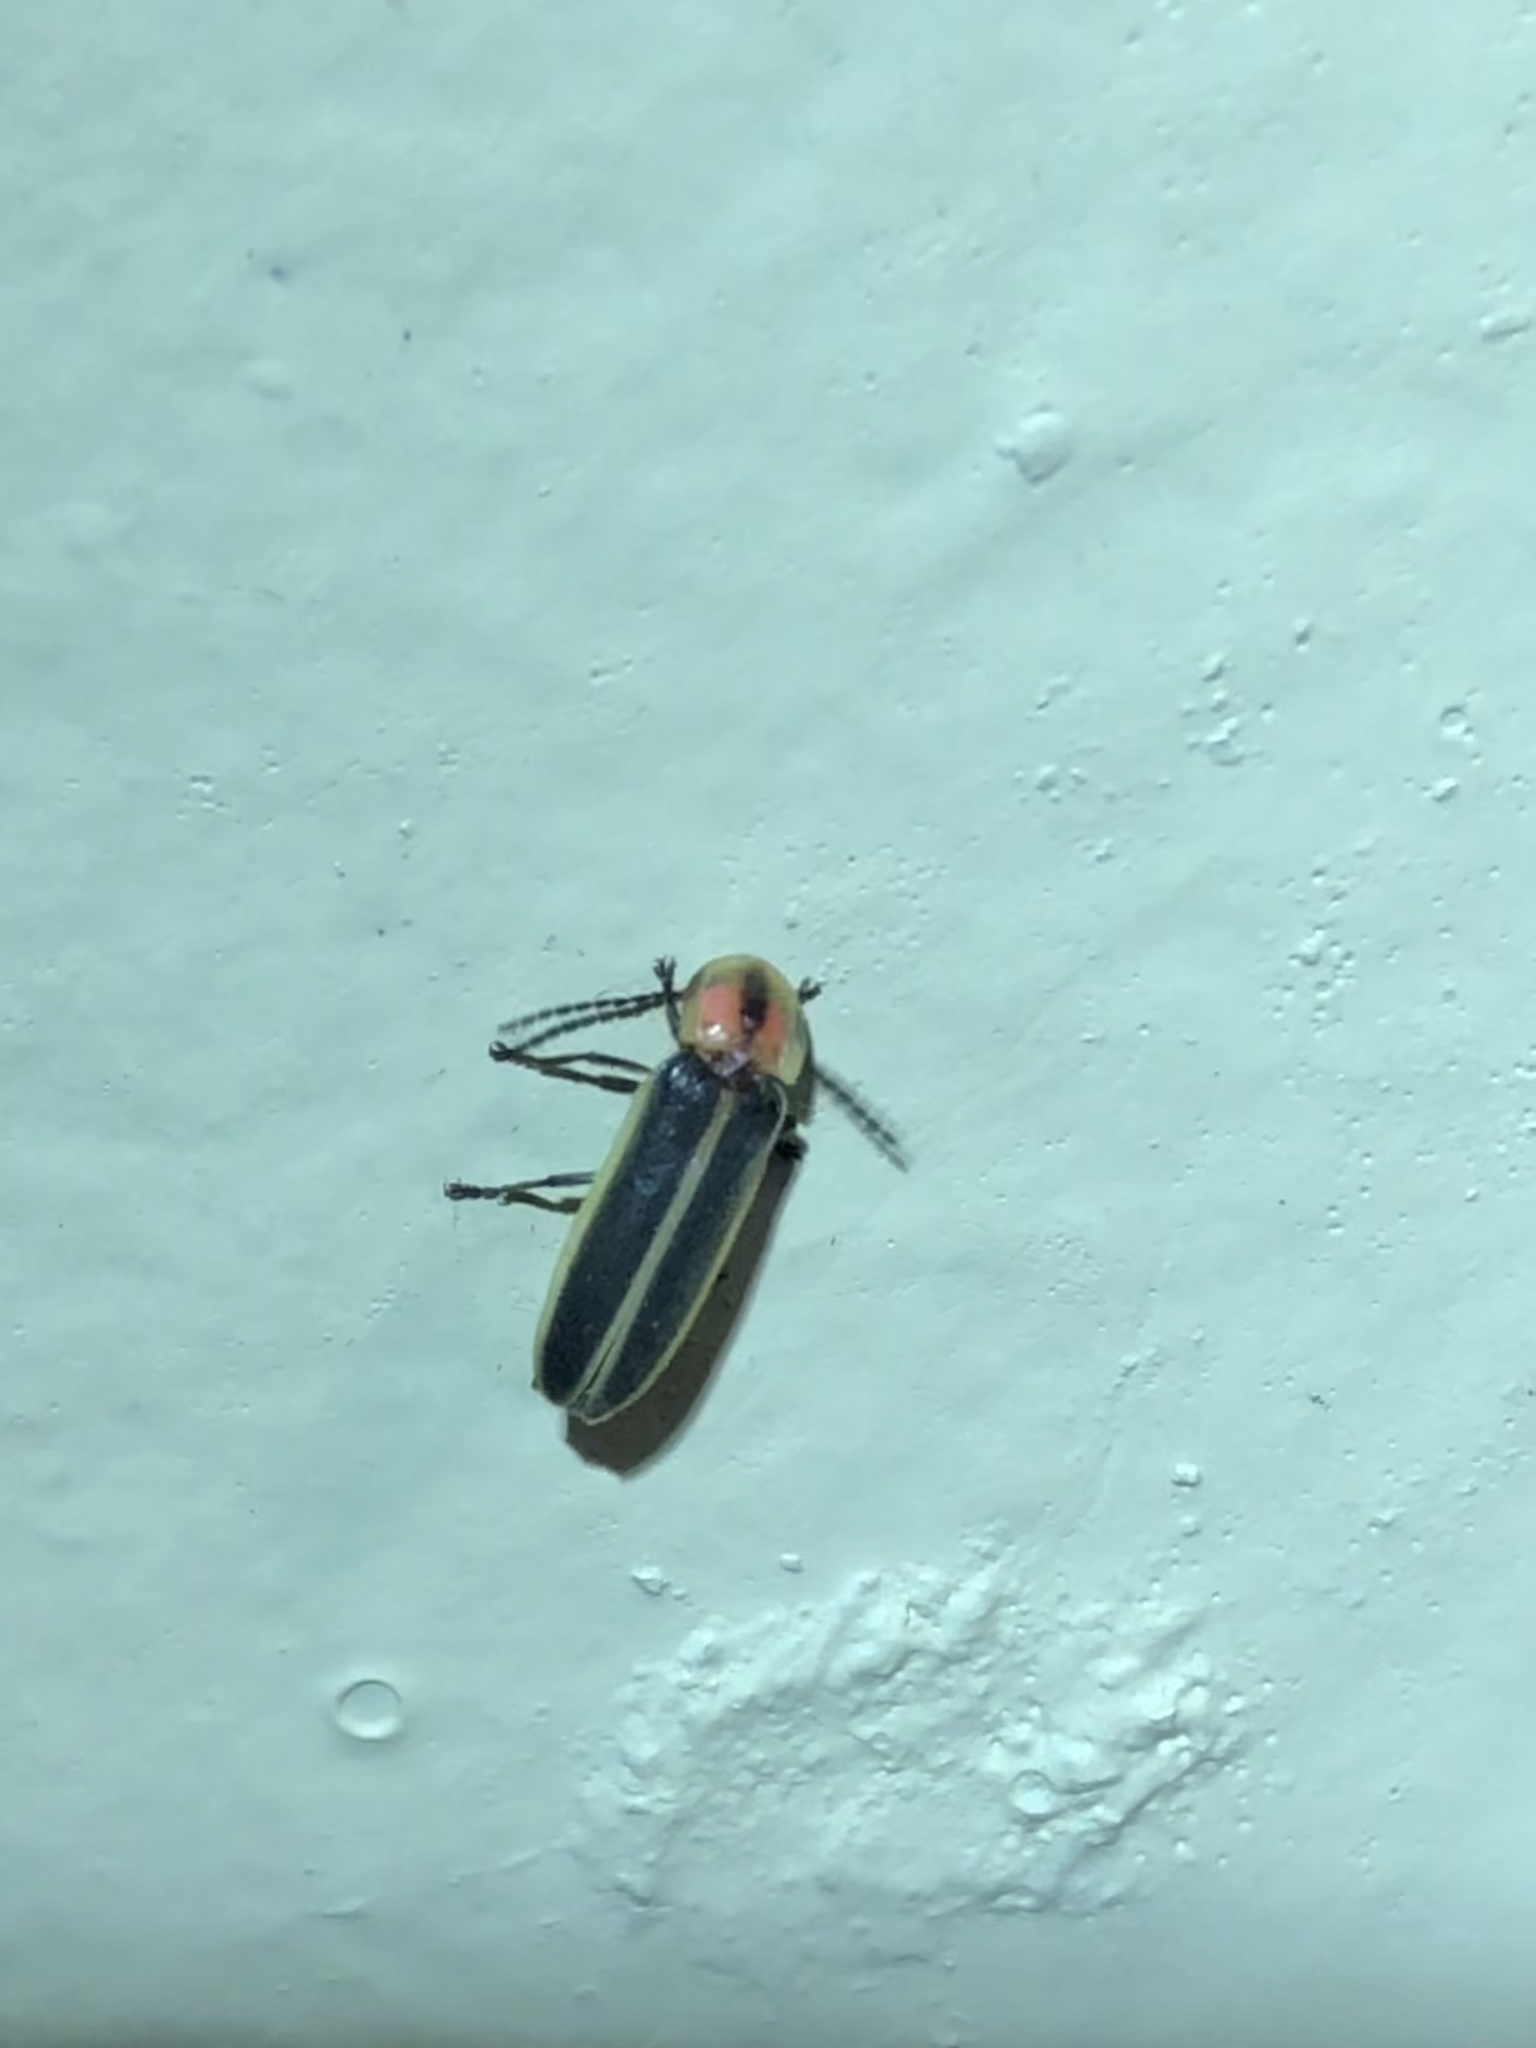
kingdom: Animalia
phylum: Arthropoda
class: Insecta
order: Coleoptera
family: Lampyridae
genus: Photinus
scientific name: Photinus knulli
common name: Fall southwest firefly
